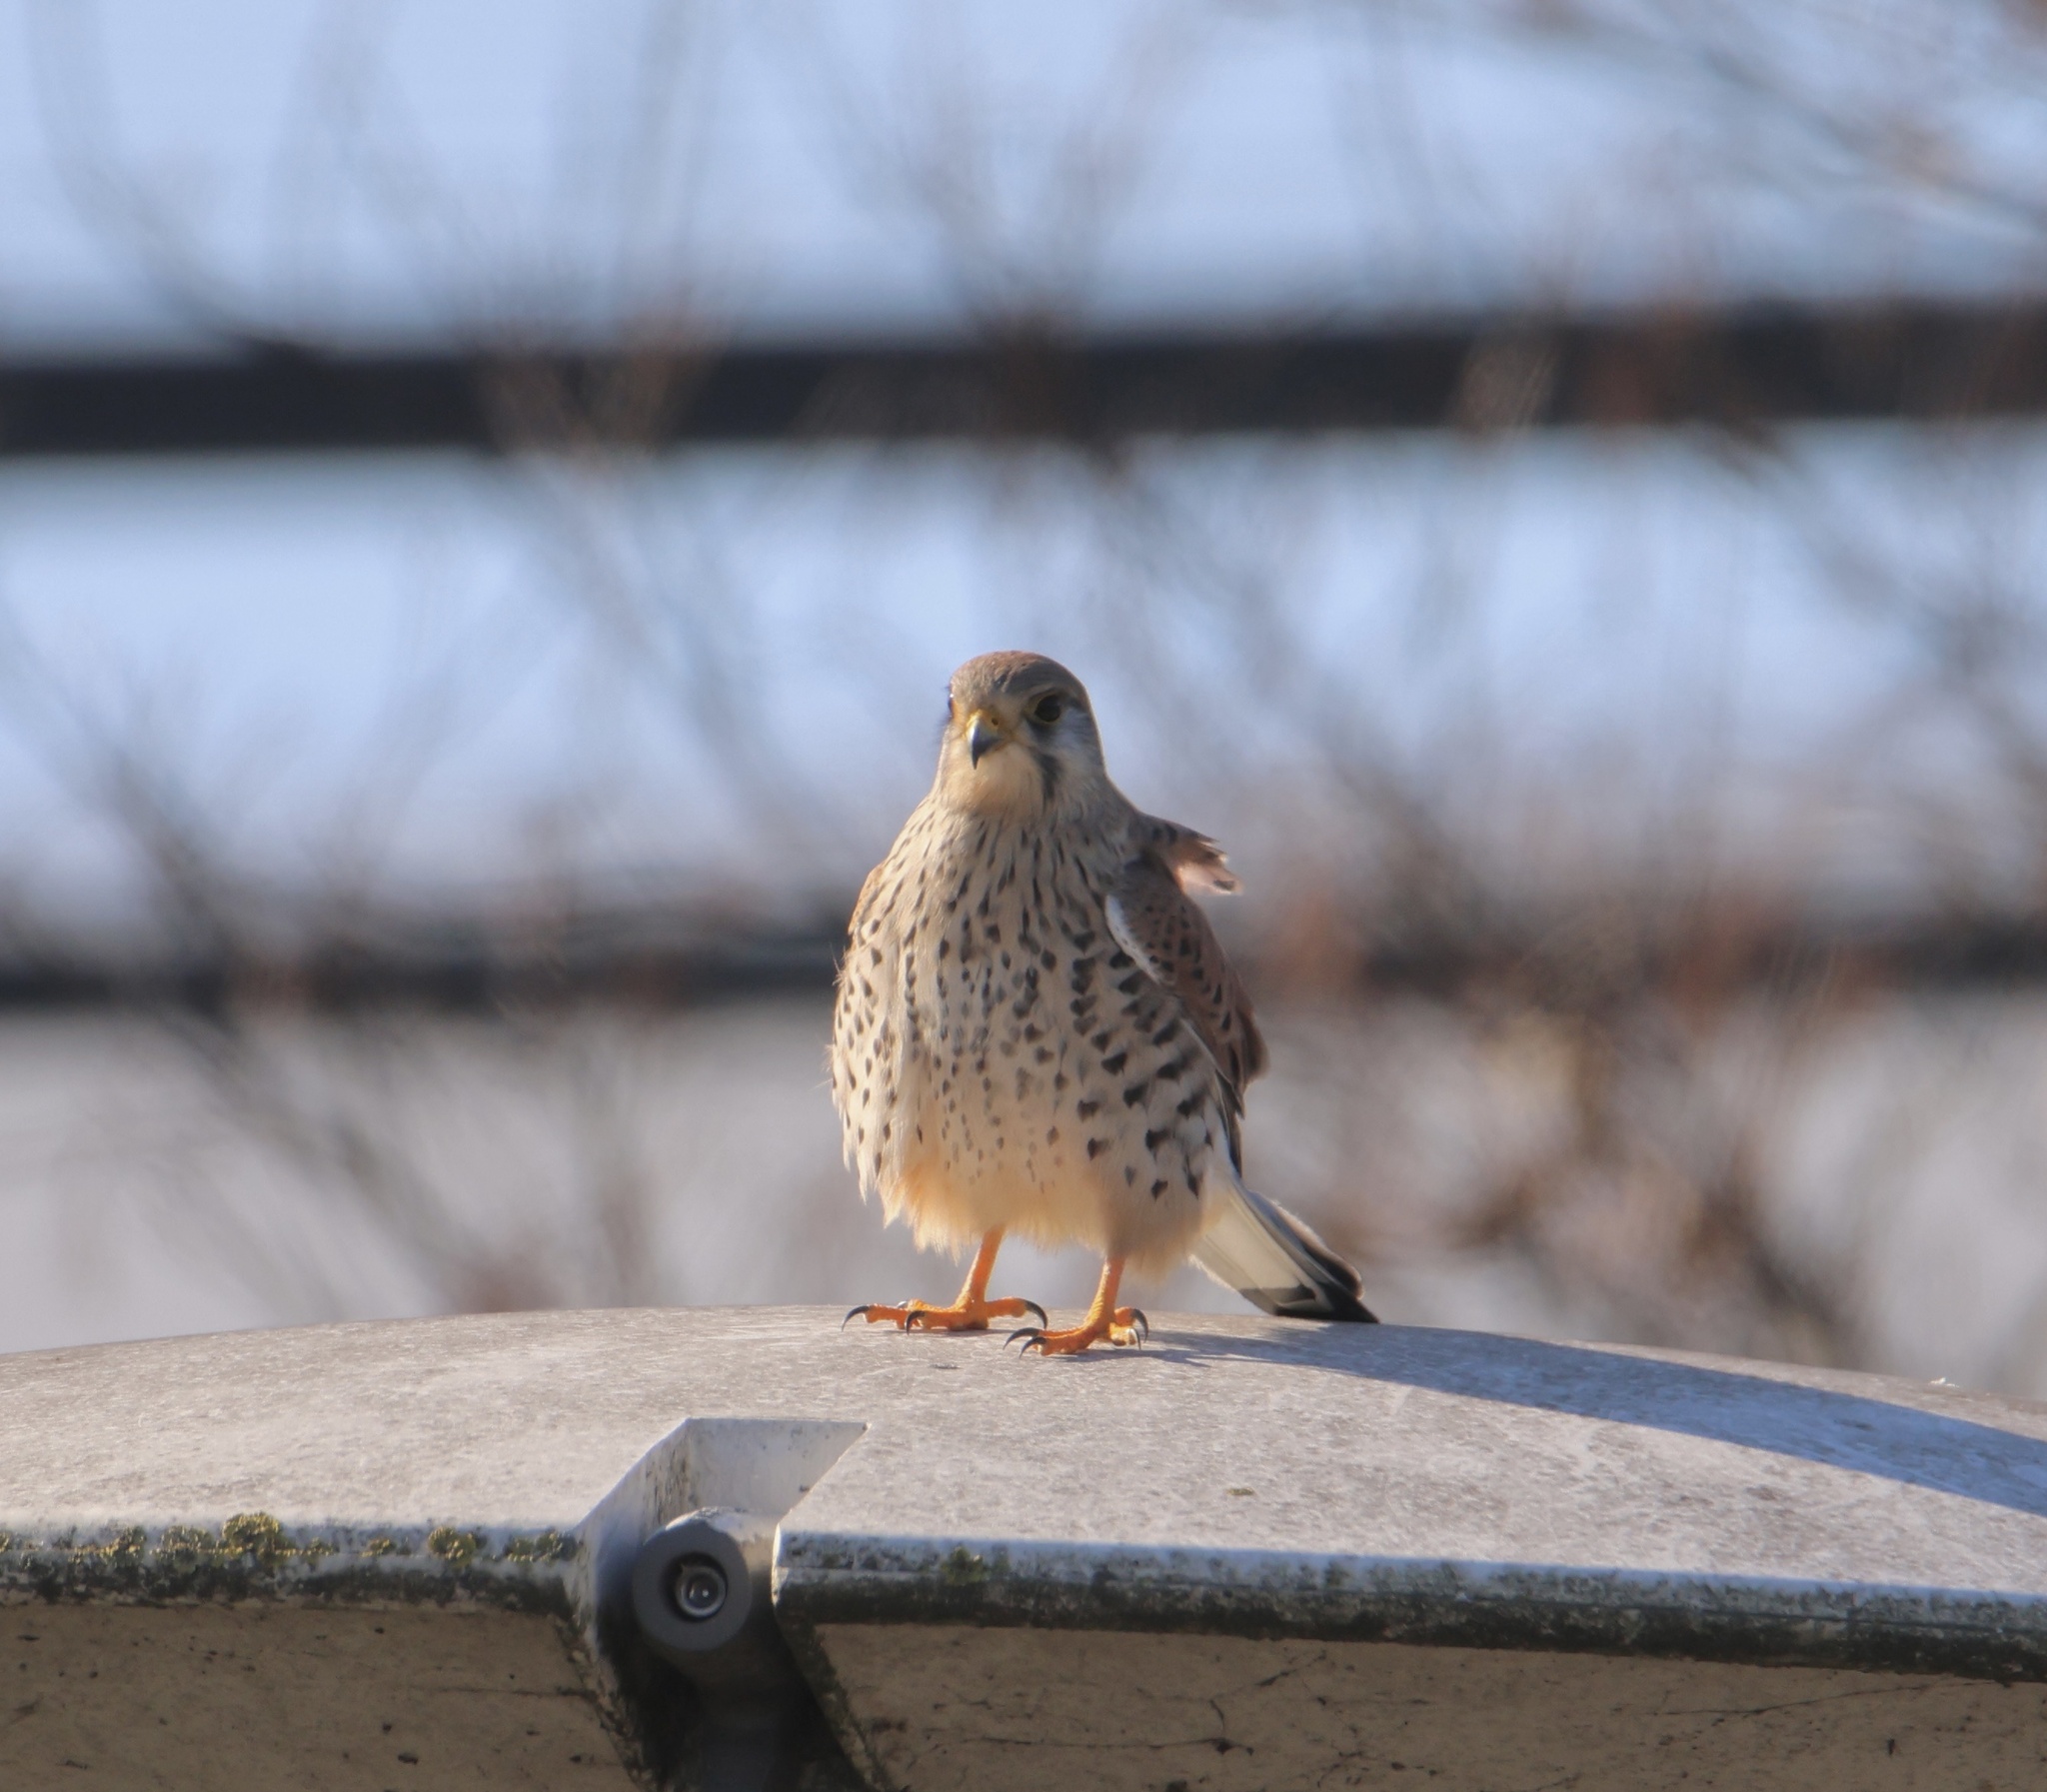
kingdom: Animalia
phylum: Chordata
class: Aves
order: Falconiformes
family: Falconidae
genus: Falco
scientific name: Falco tinnunculus
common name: Common kestrel
